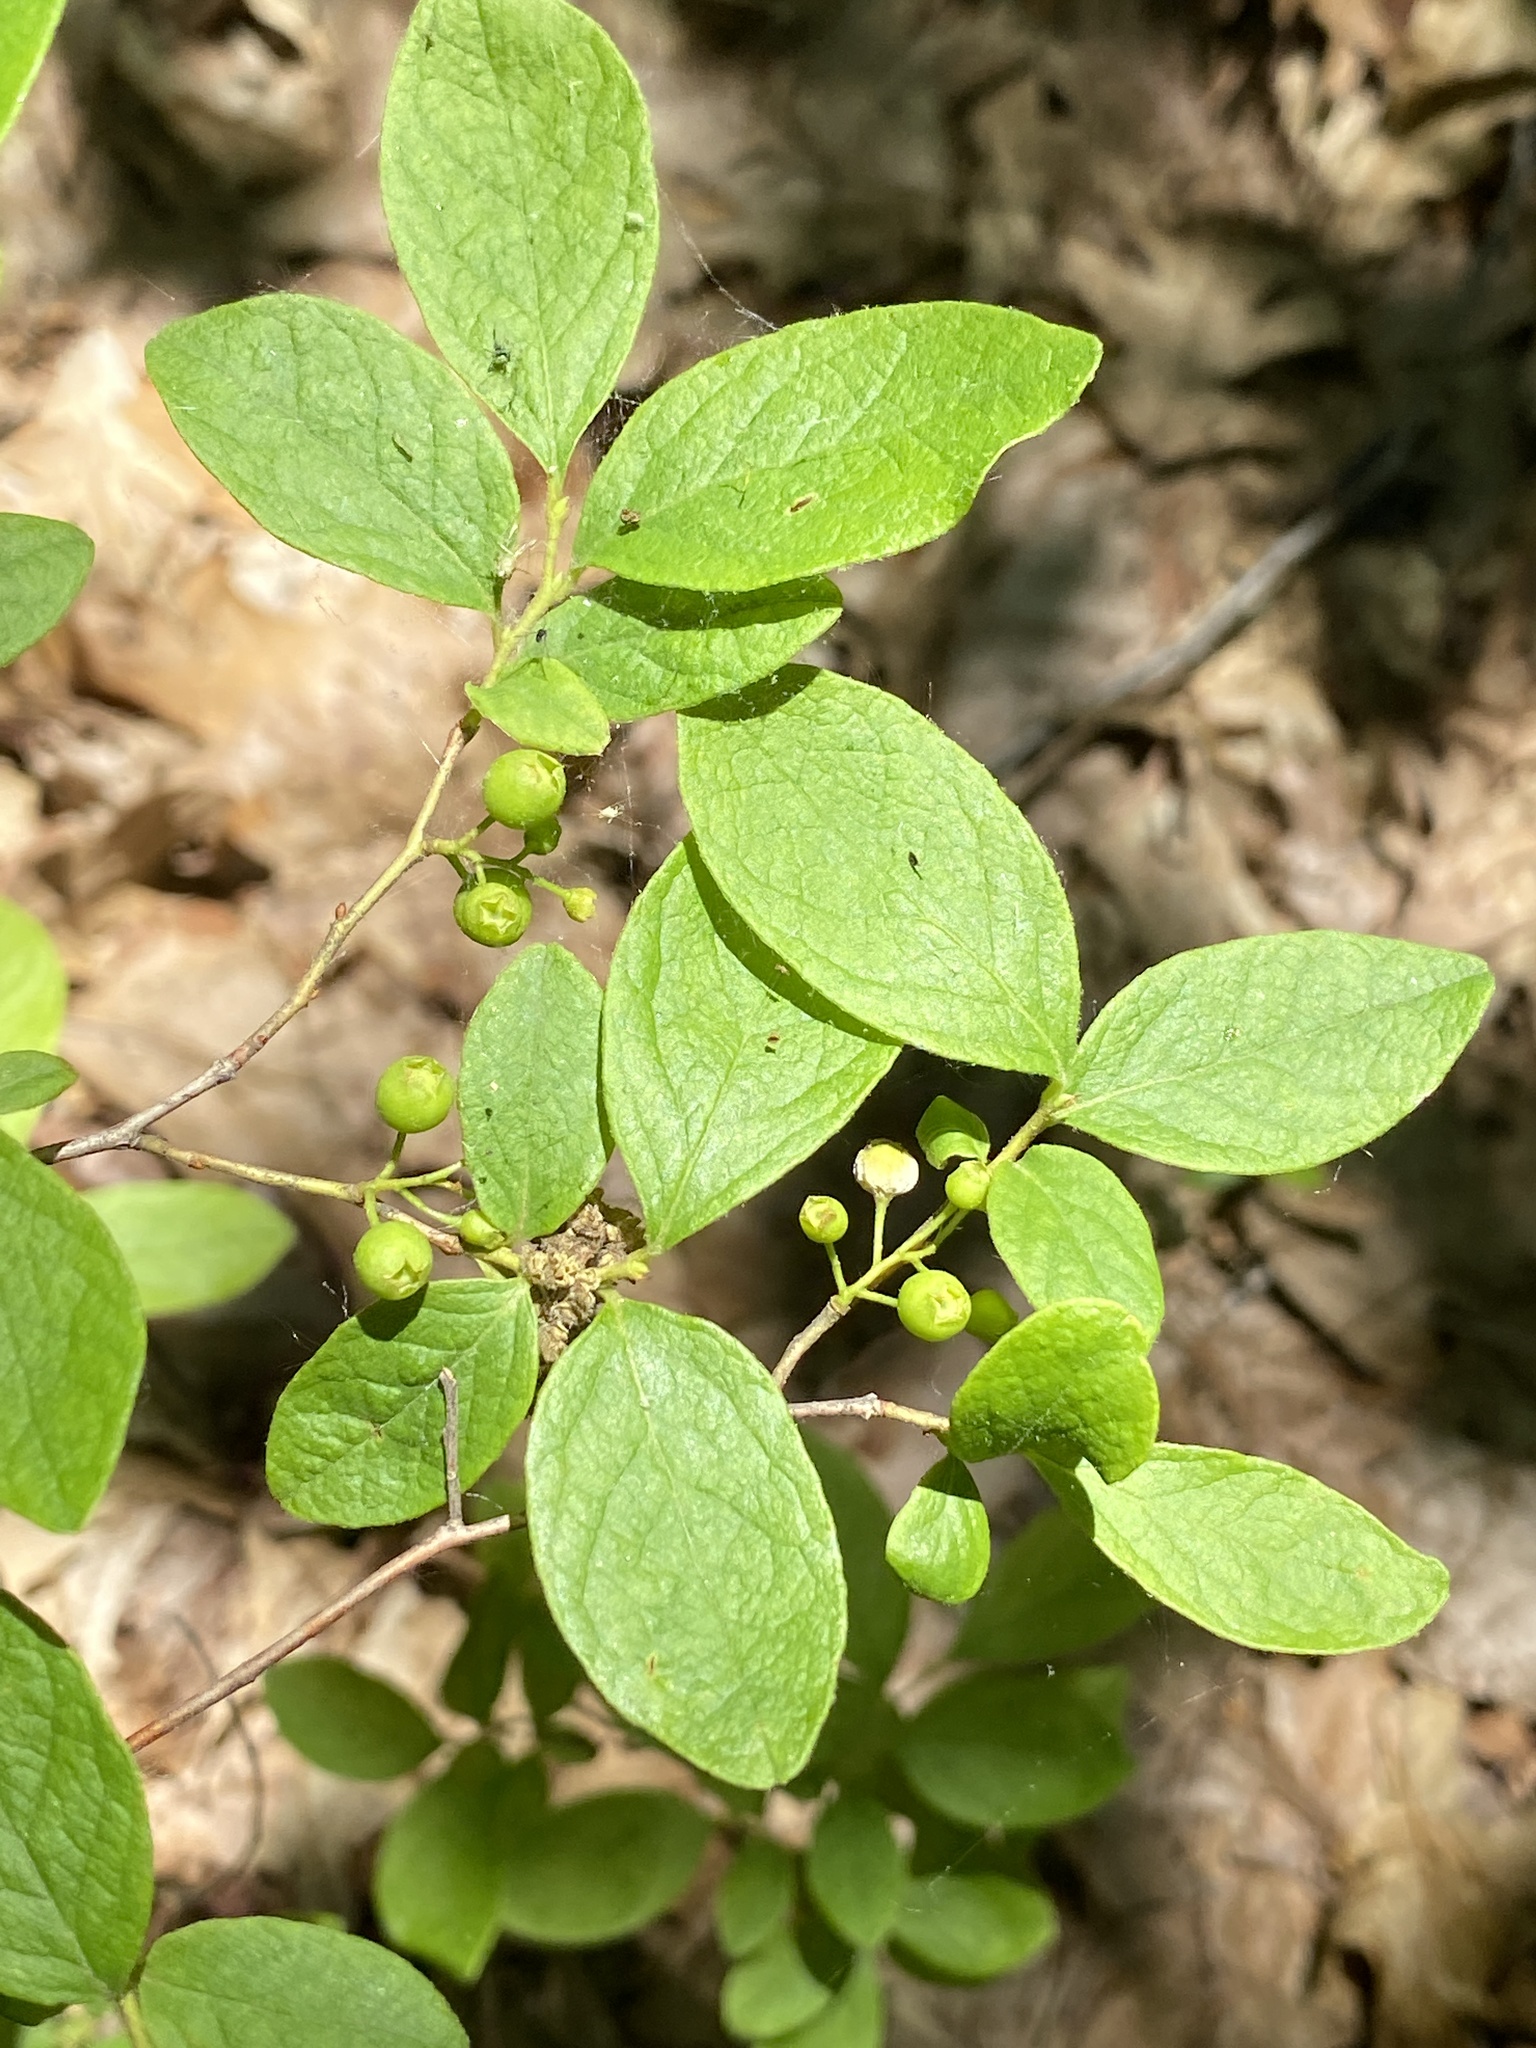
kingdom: Plantae
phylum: Tracheophyta
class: Magnoliopsida
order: Ericales
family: Ericaceae
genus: Gaylussacia
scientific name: Gaylussacia baccata
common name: Black huckleberry
